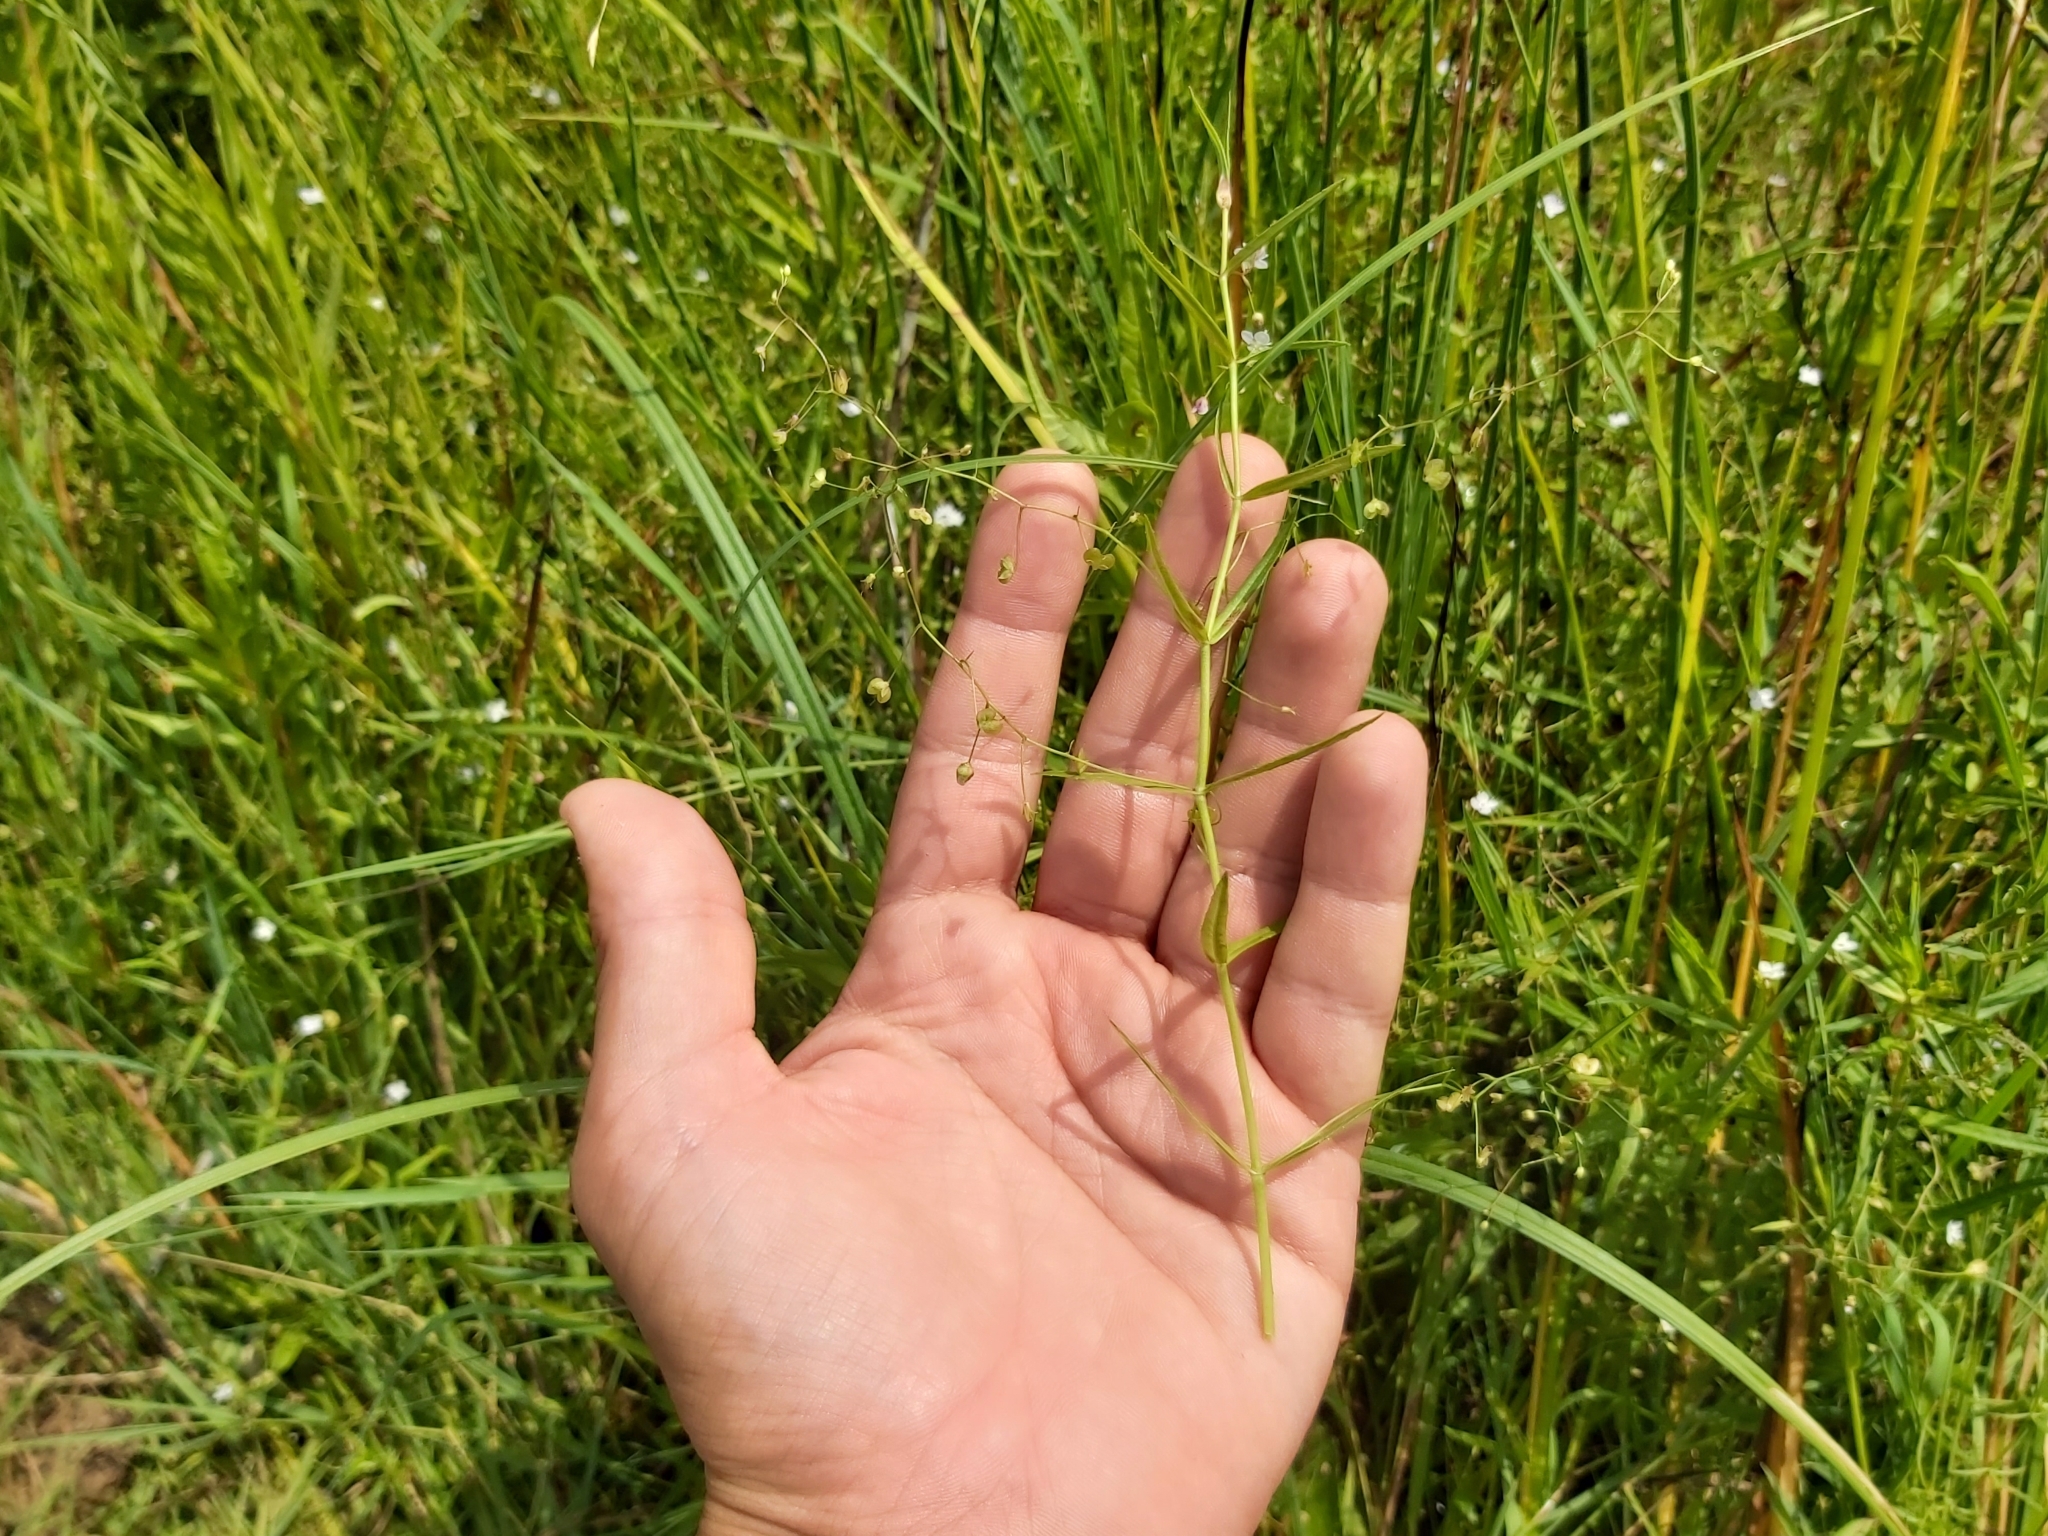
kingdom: Plantae
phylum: Tracheophyta
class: Magnoliopsida
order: Lamiales
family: Plantaginaceae
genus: Veronica
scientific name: Veronica scutellata
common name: Marsh speedwell
